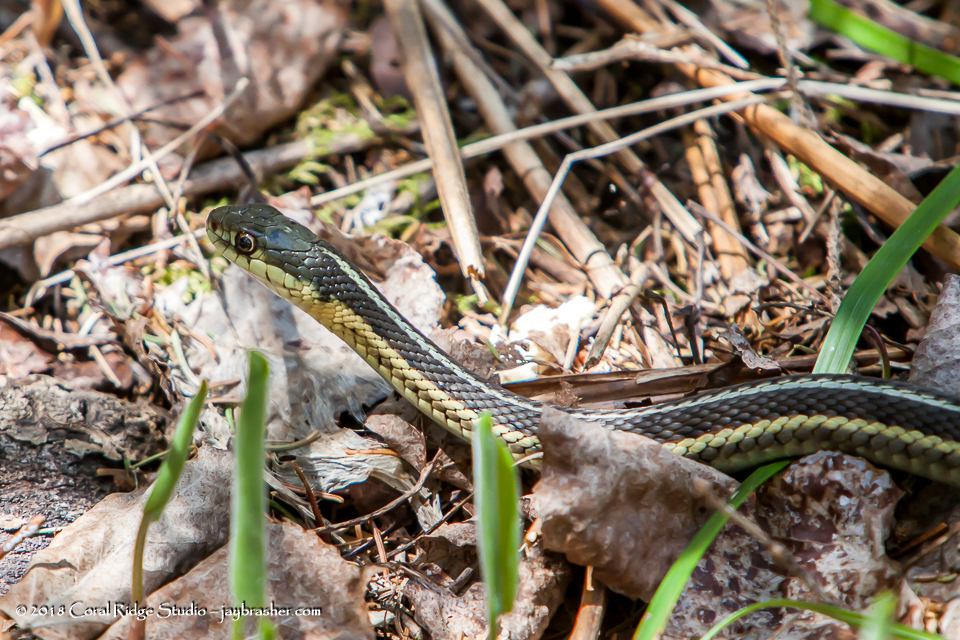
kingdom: Animalia
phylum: Chordata
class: Squamata
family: Colubridae
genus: Thamnophis
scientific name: Thamnophis sirtalis
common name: Common garter snake
